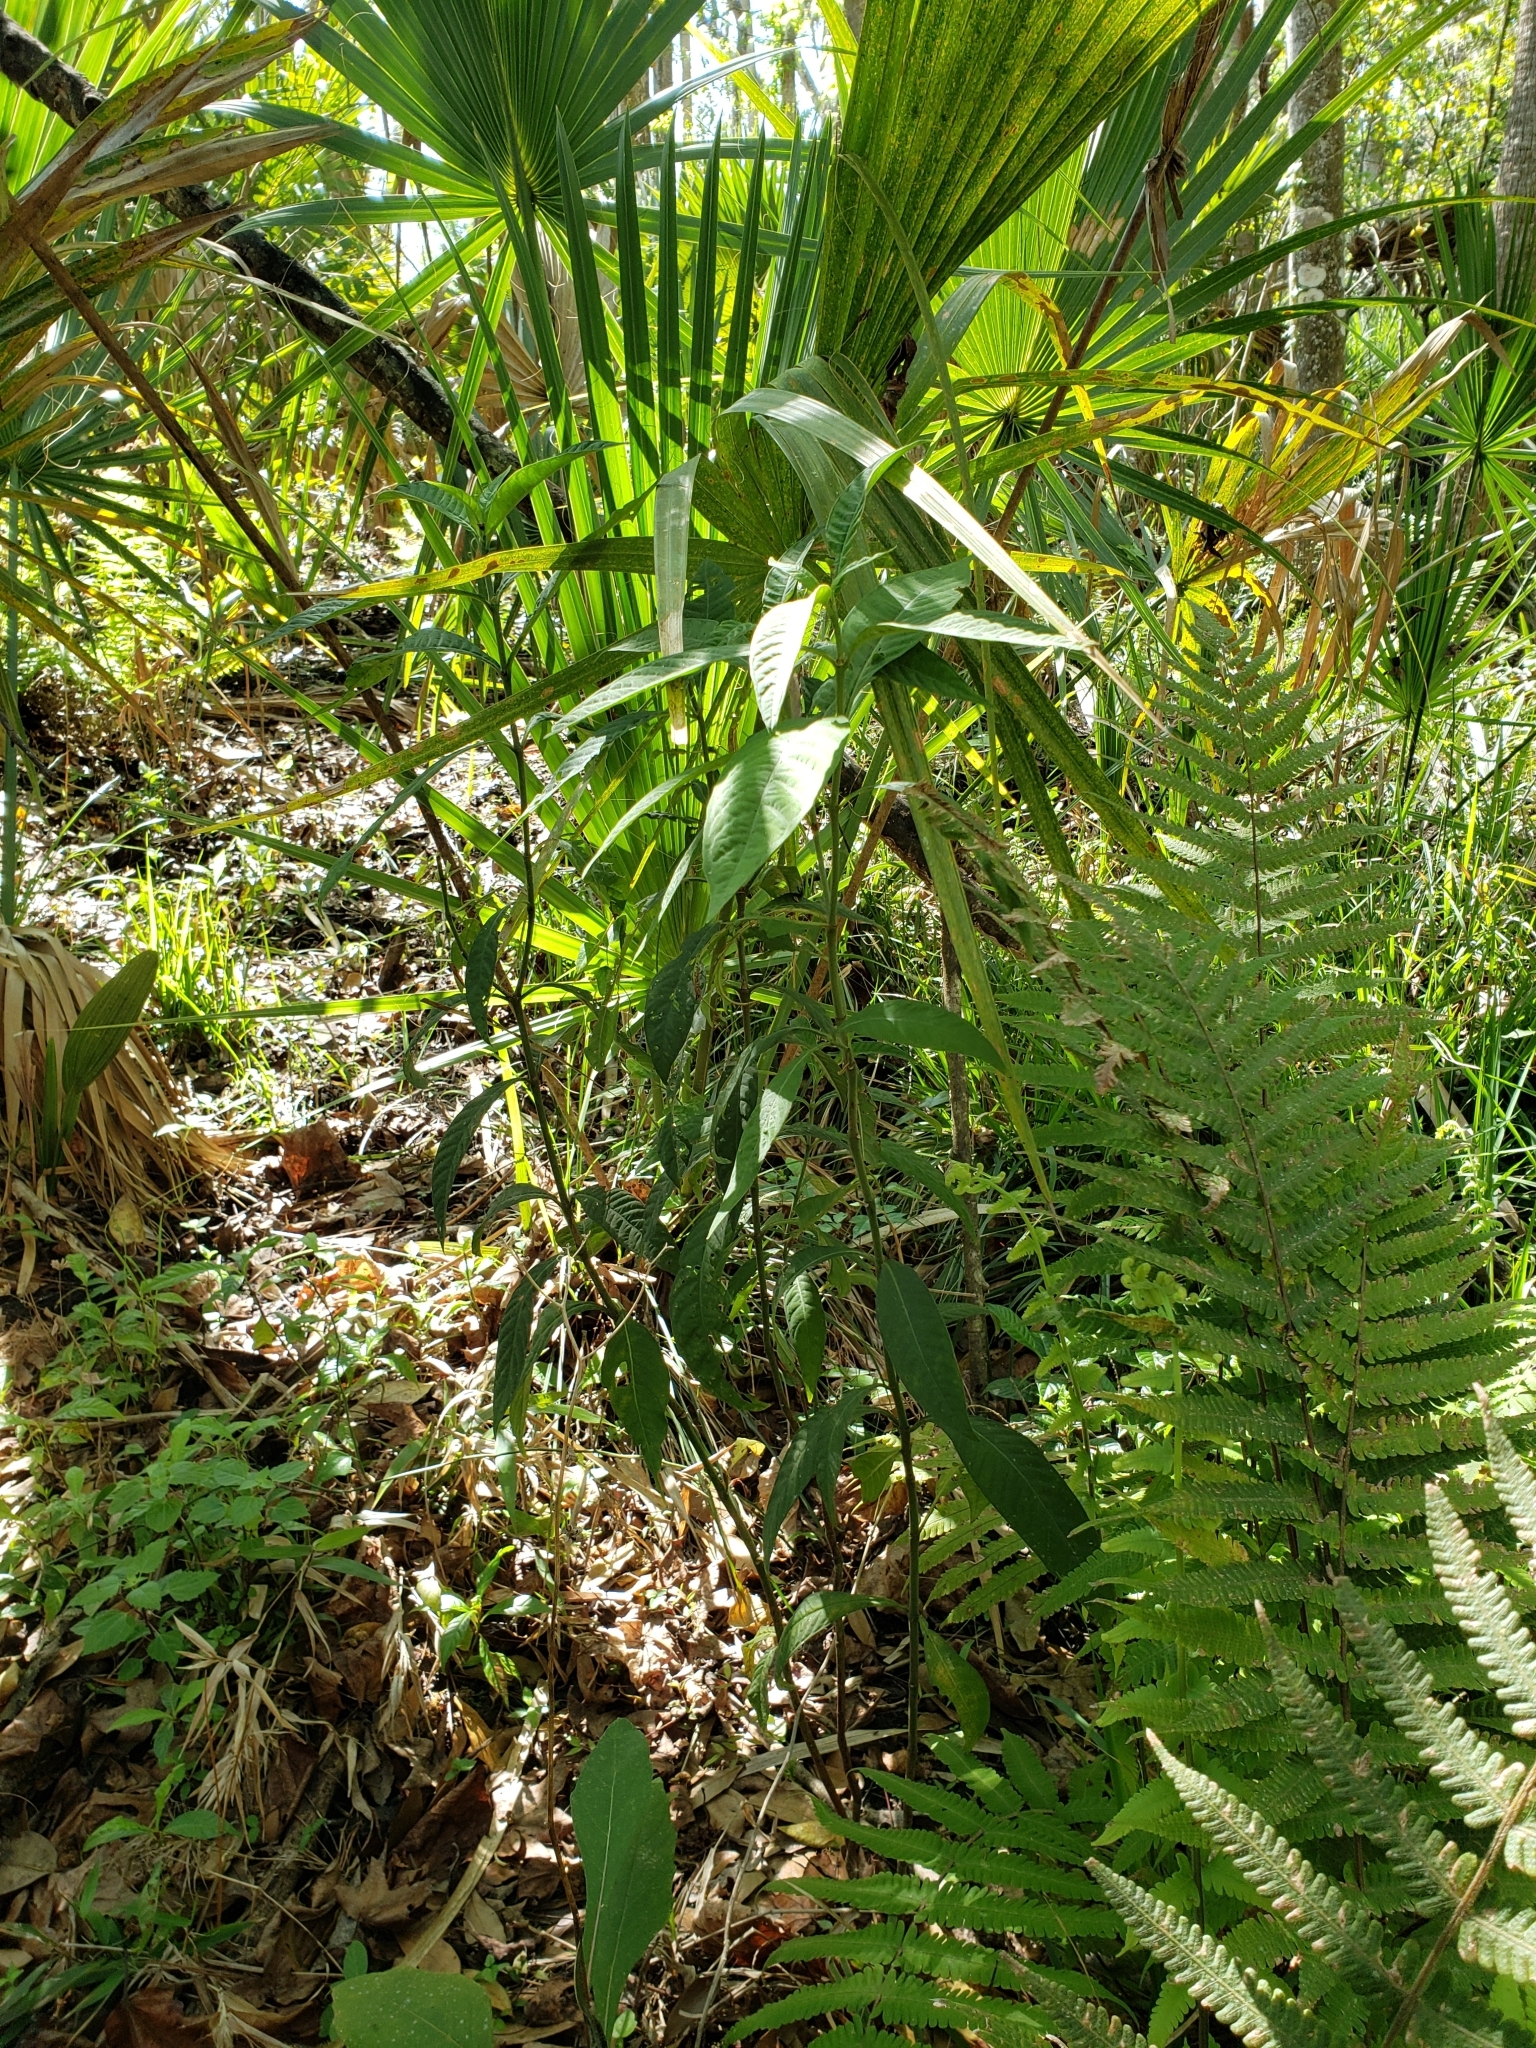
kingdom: Plantae
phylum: Tracheophyta
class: Magnoliopsida
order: Gentianales
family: Rubiaceae
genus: Psychotria
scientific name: Psychotria tenuifolia
